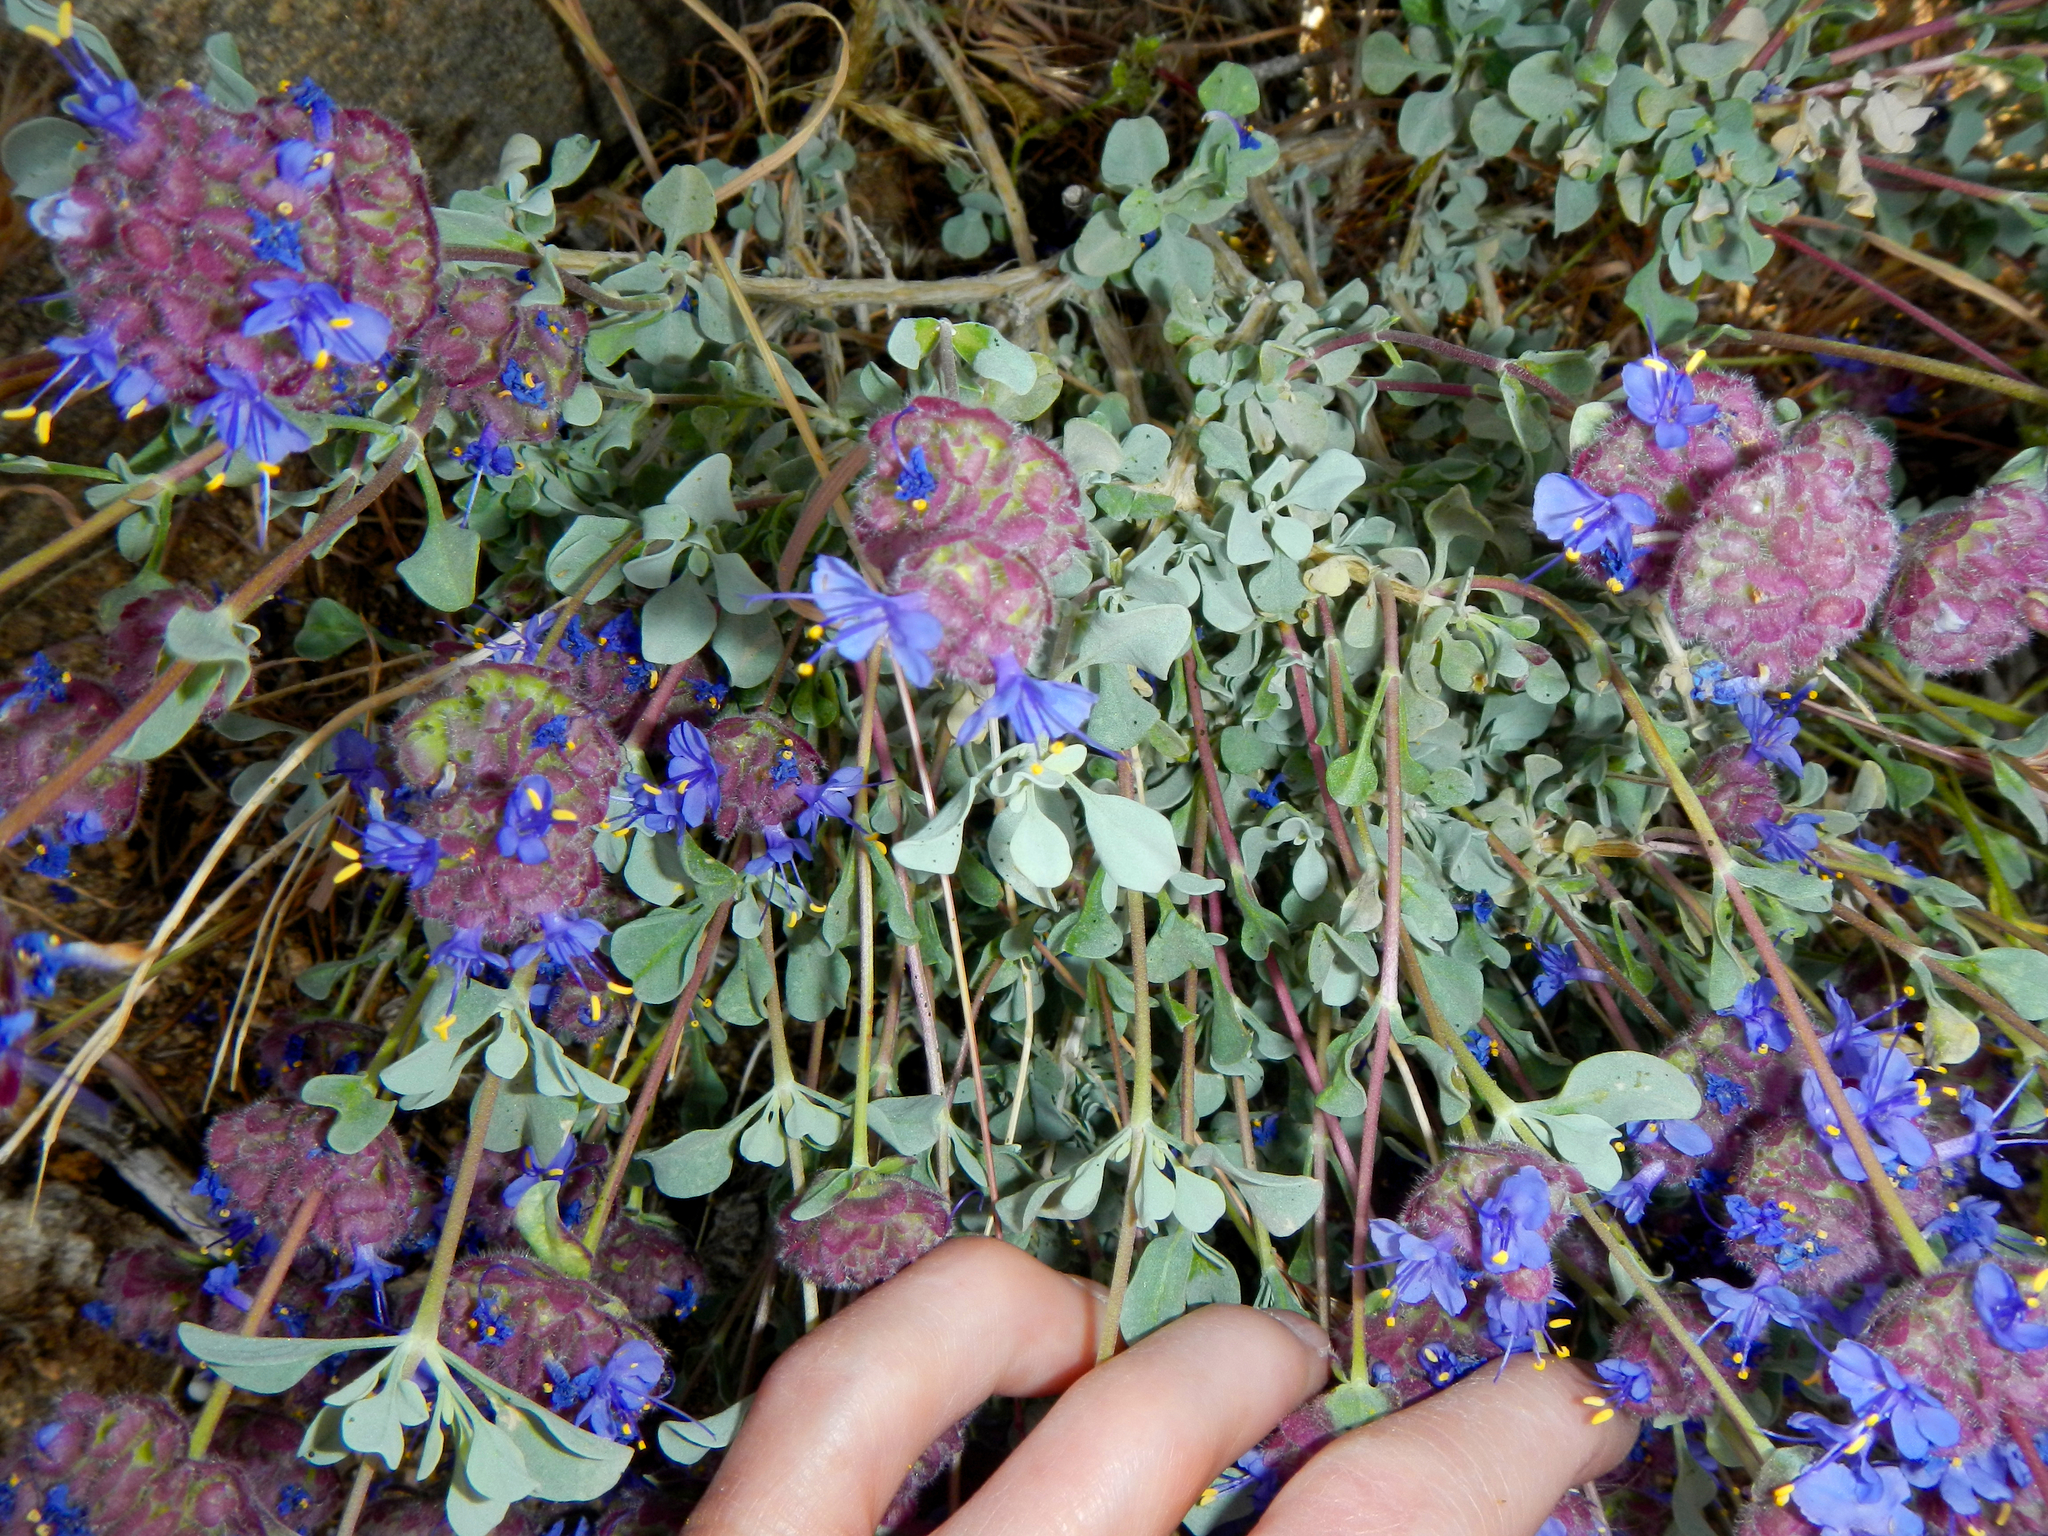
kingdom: Plantae
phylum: Tracheophyta
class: Magnoliopsida
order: Lamiales
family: Lamiaceae
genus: Salvia
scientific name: Salvia dorrii
